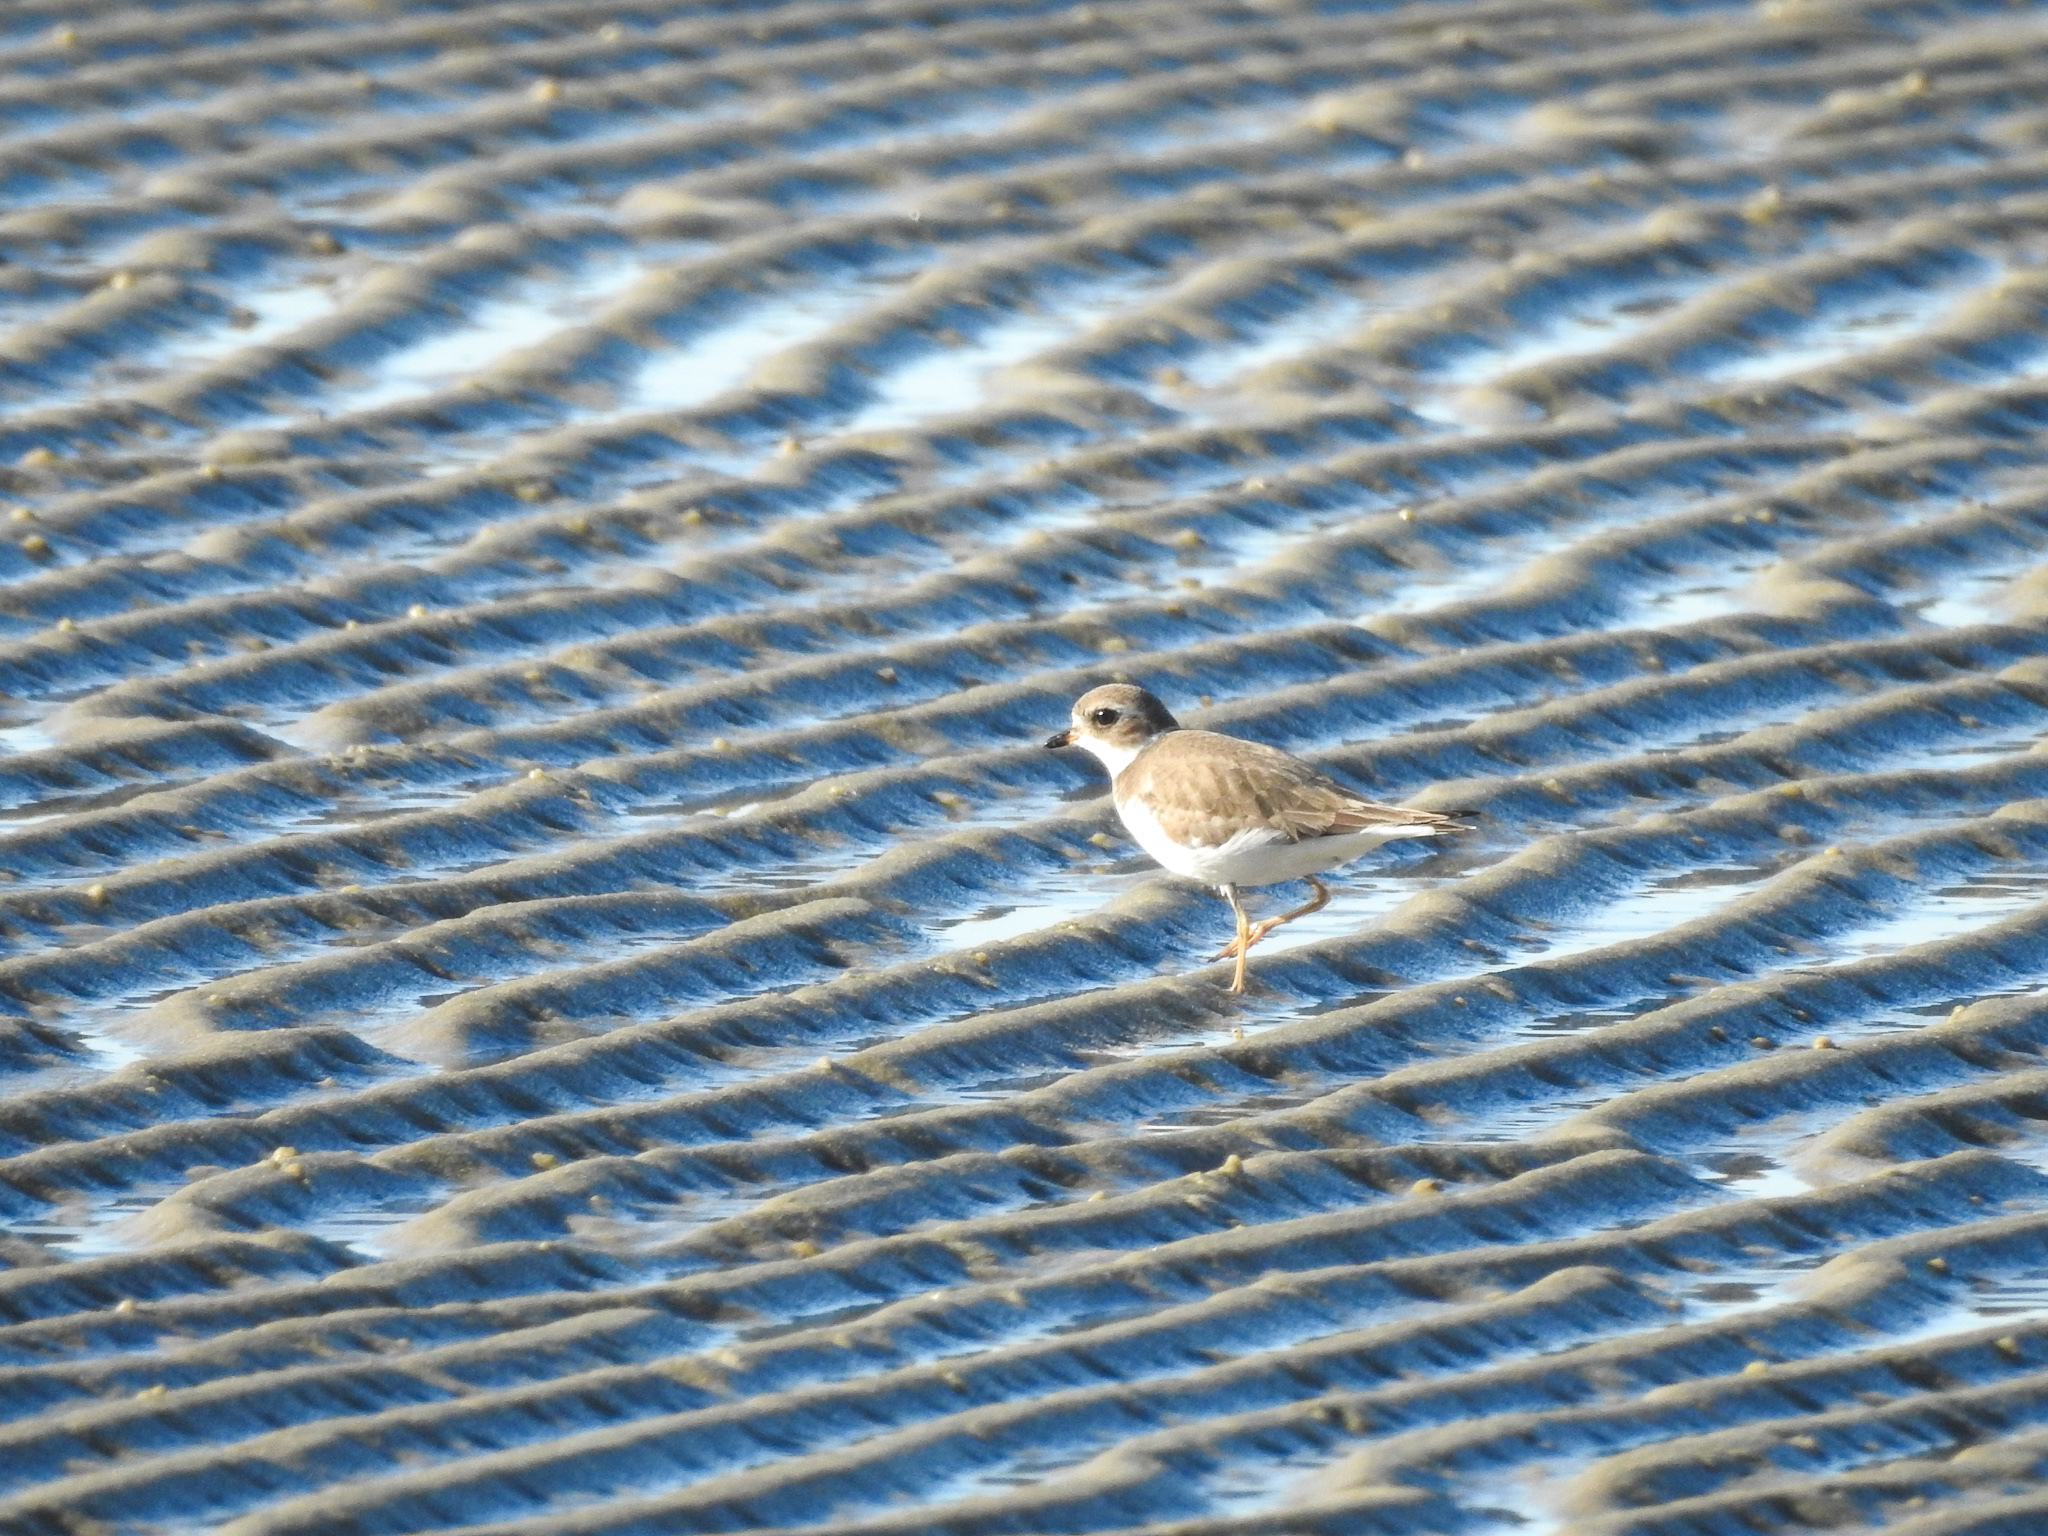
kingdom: Animalia
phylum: Chordata
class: Aves
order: Charadriiformes
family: Charadriidae
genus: Charadrius
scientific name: Charadrius semipalmatus
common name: Semipalmated plover
